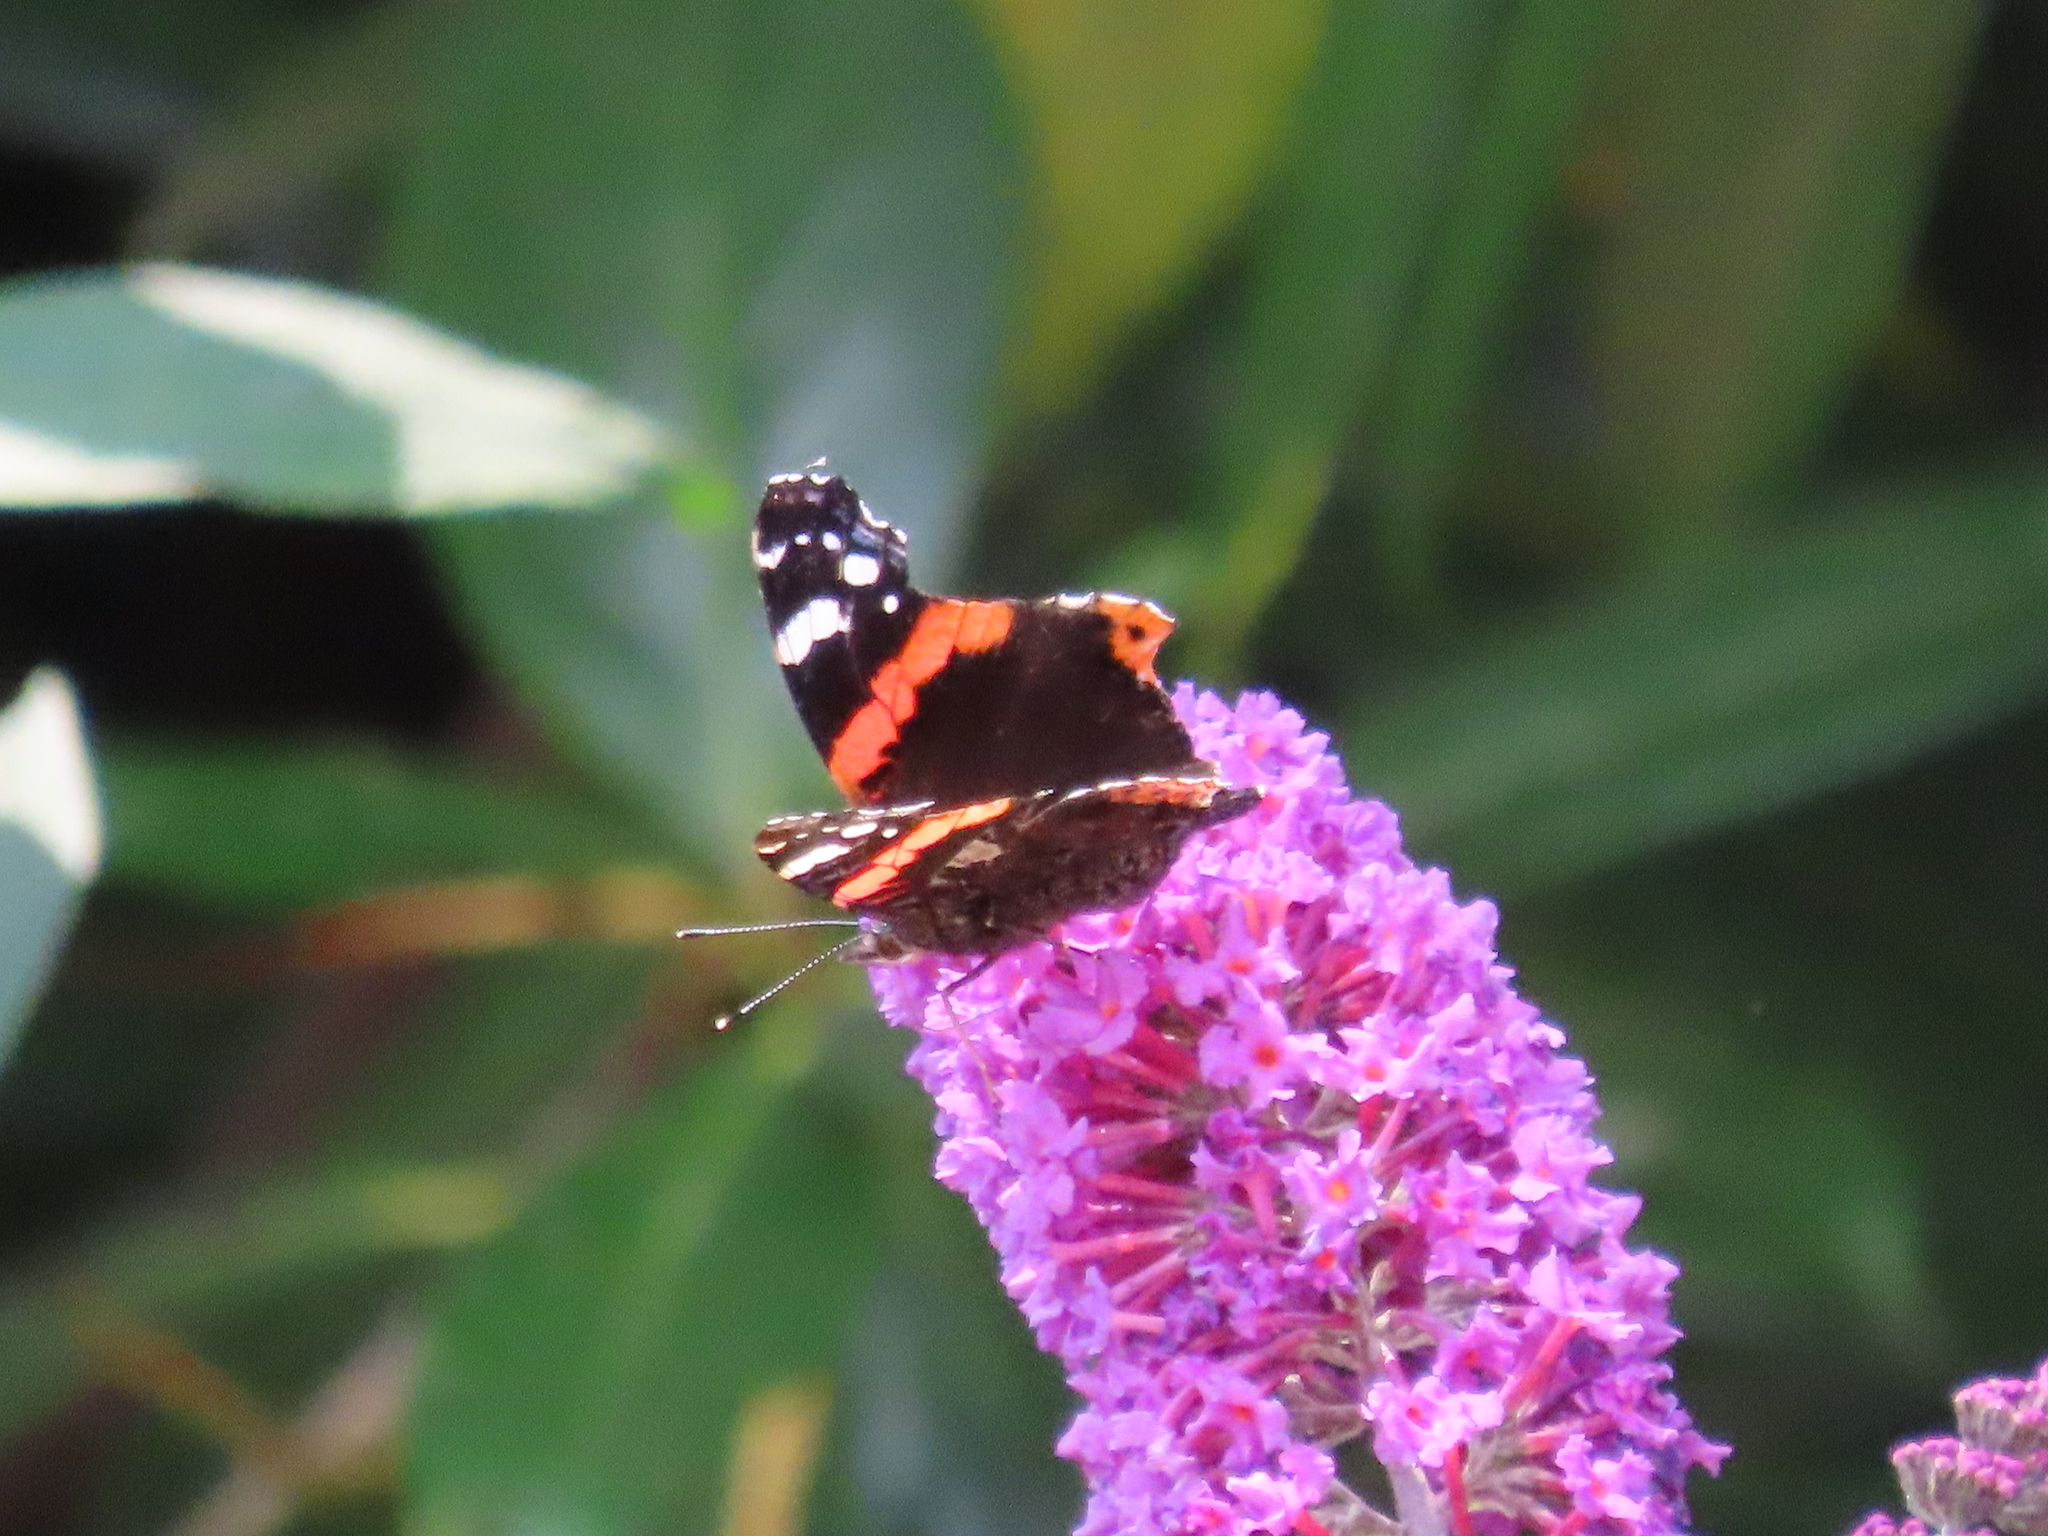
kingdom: Animalia
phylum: Arthropoda
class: Insecta
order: Lepidoptera
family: Nymphalidae
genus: Vanessa
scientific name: Vanessa atalanta
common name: Red admiral
